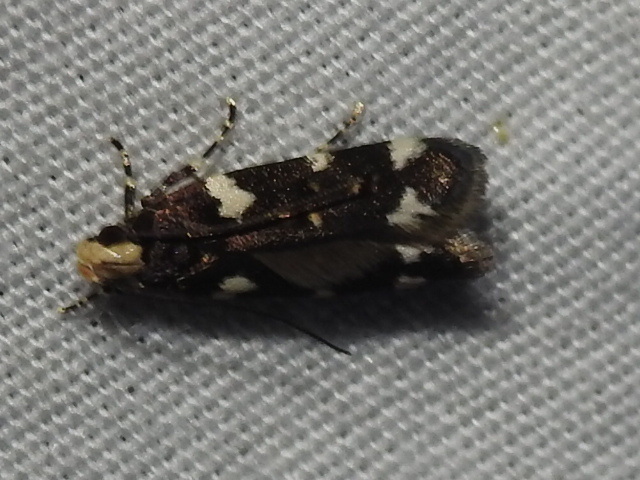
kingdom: Animalia
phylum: Arthropoda
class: Insecta
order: Lepidoptera
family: Gelechiidae
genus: Fascista
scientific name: Fascista cercerisella
